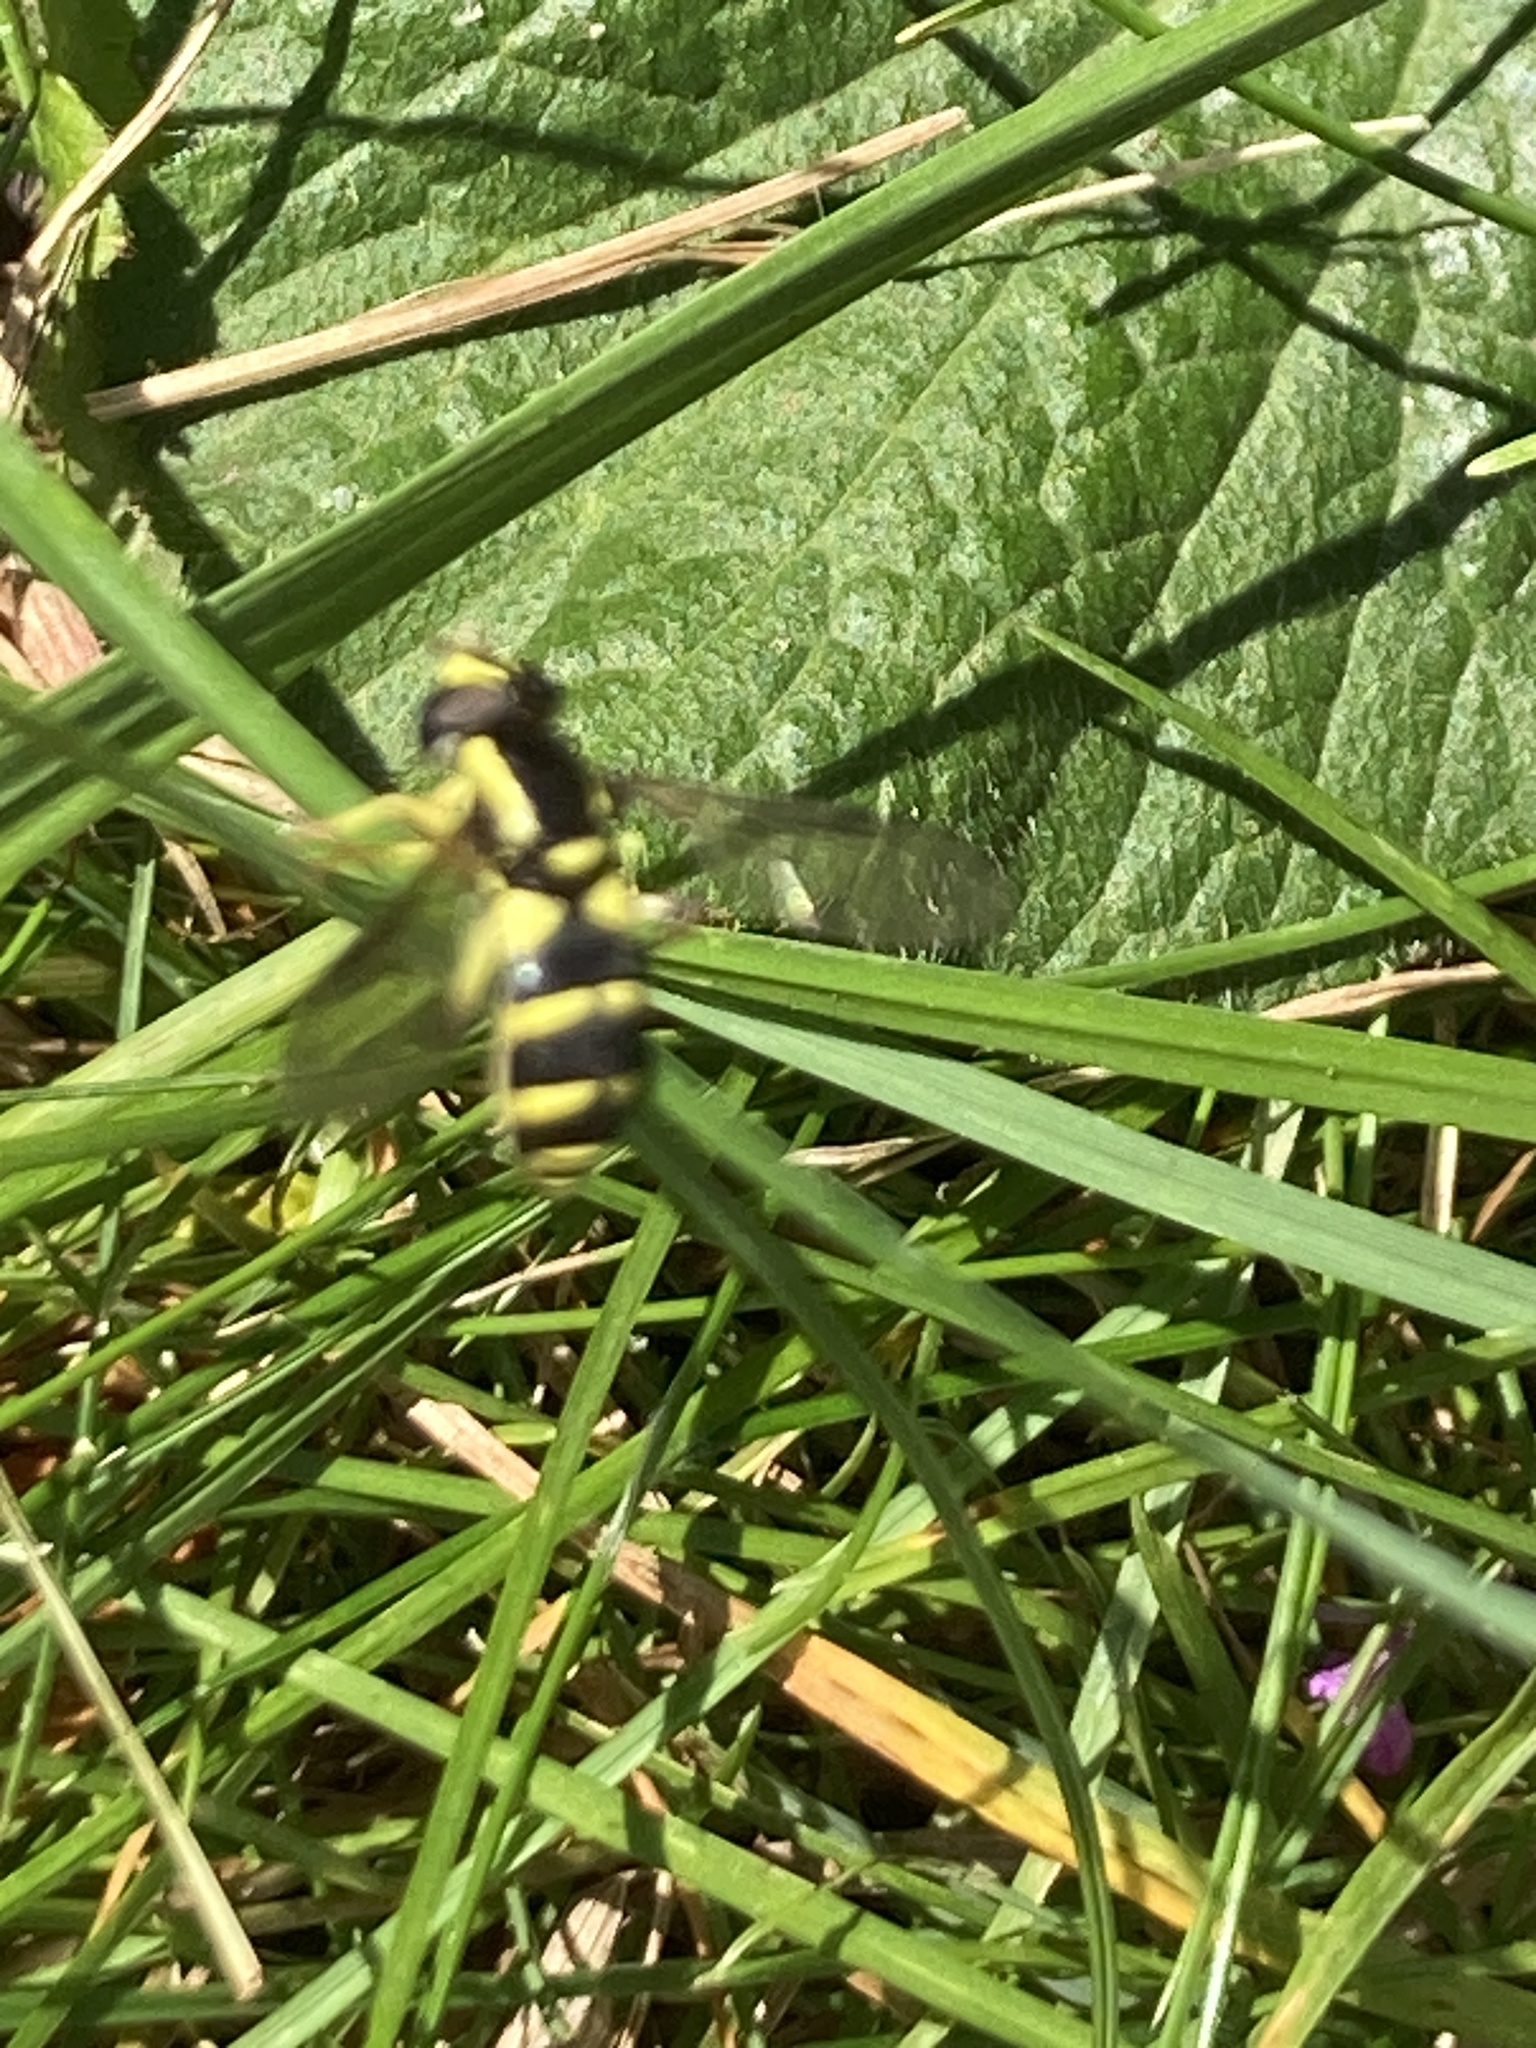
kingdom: Animalia
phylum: Arthropoda
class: Insecta
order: Diptera
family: Syrphidae
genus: Philhelius
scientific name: Philhelius pedissequum
